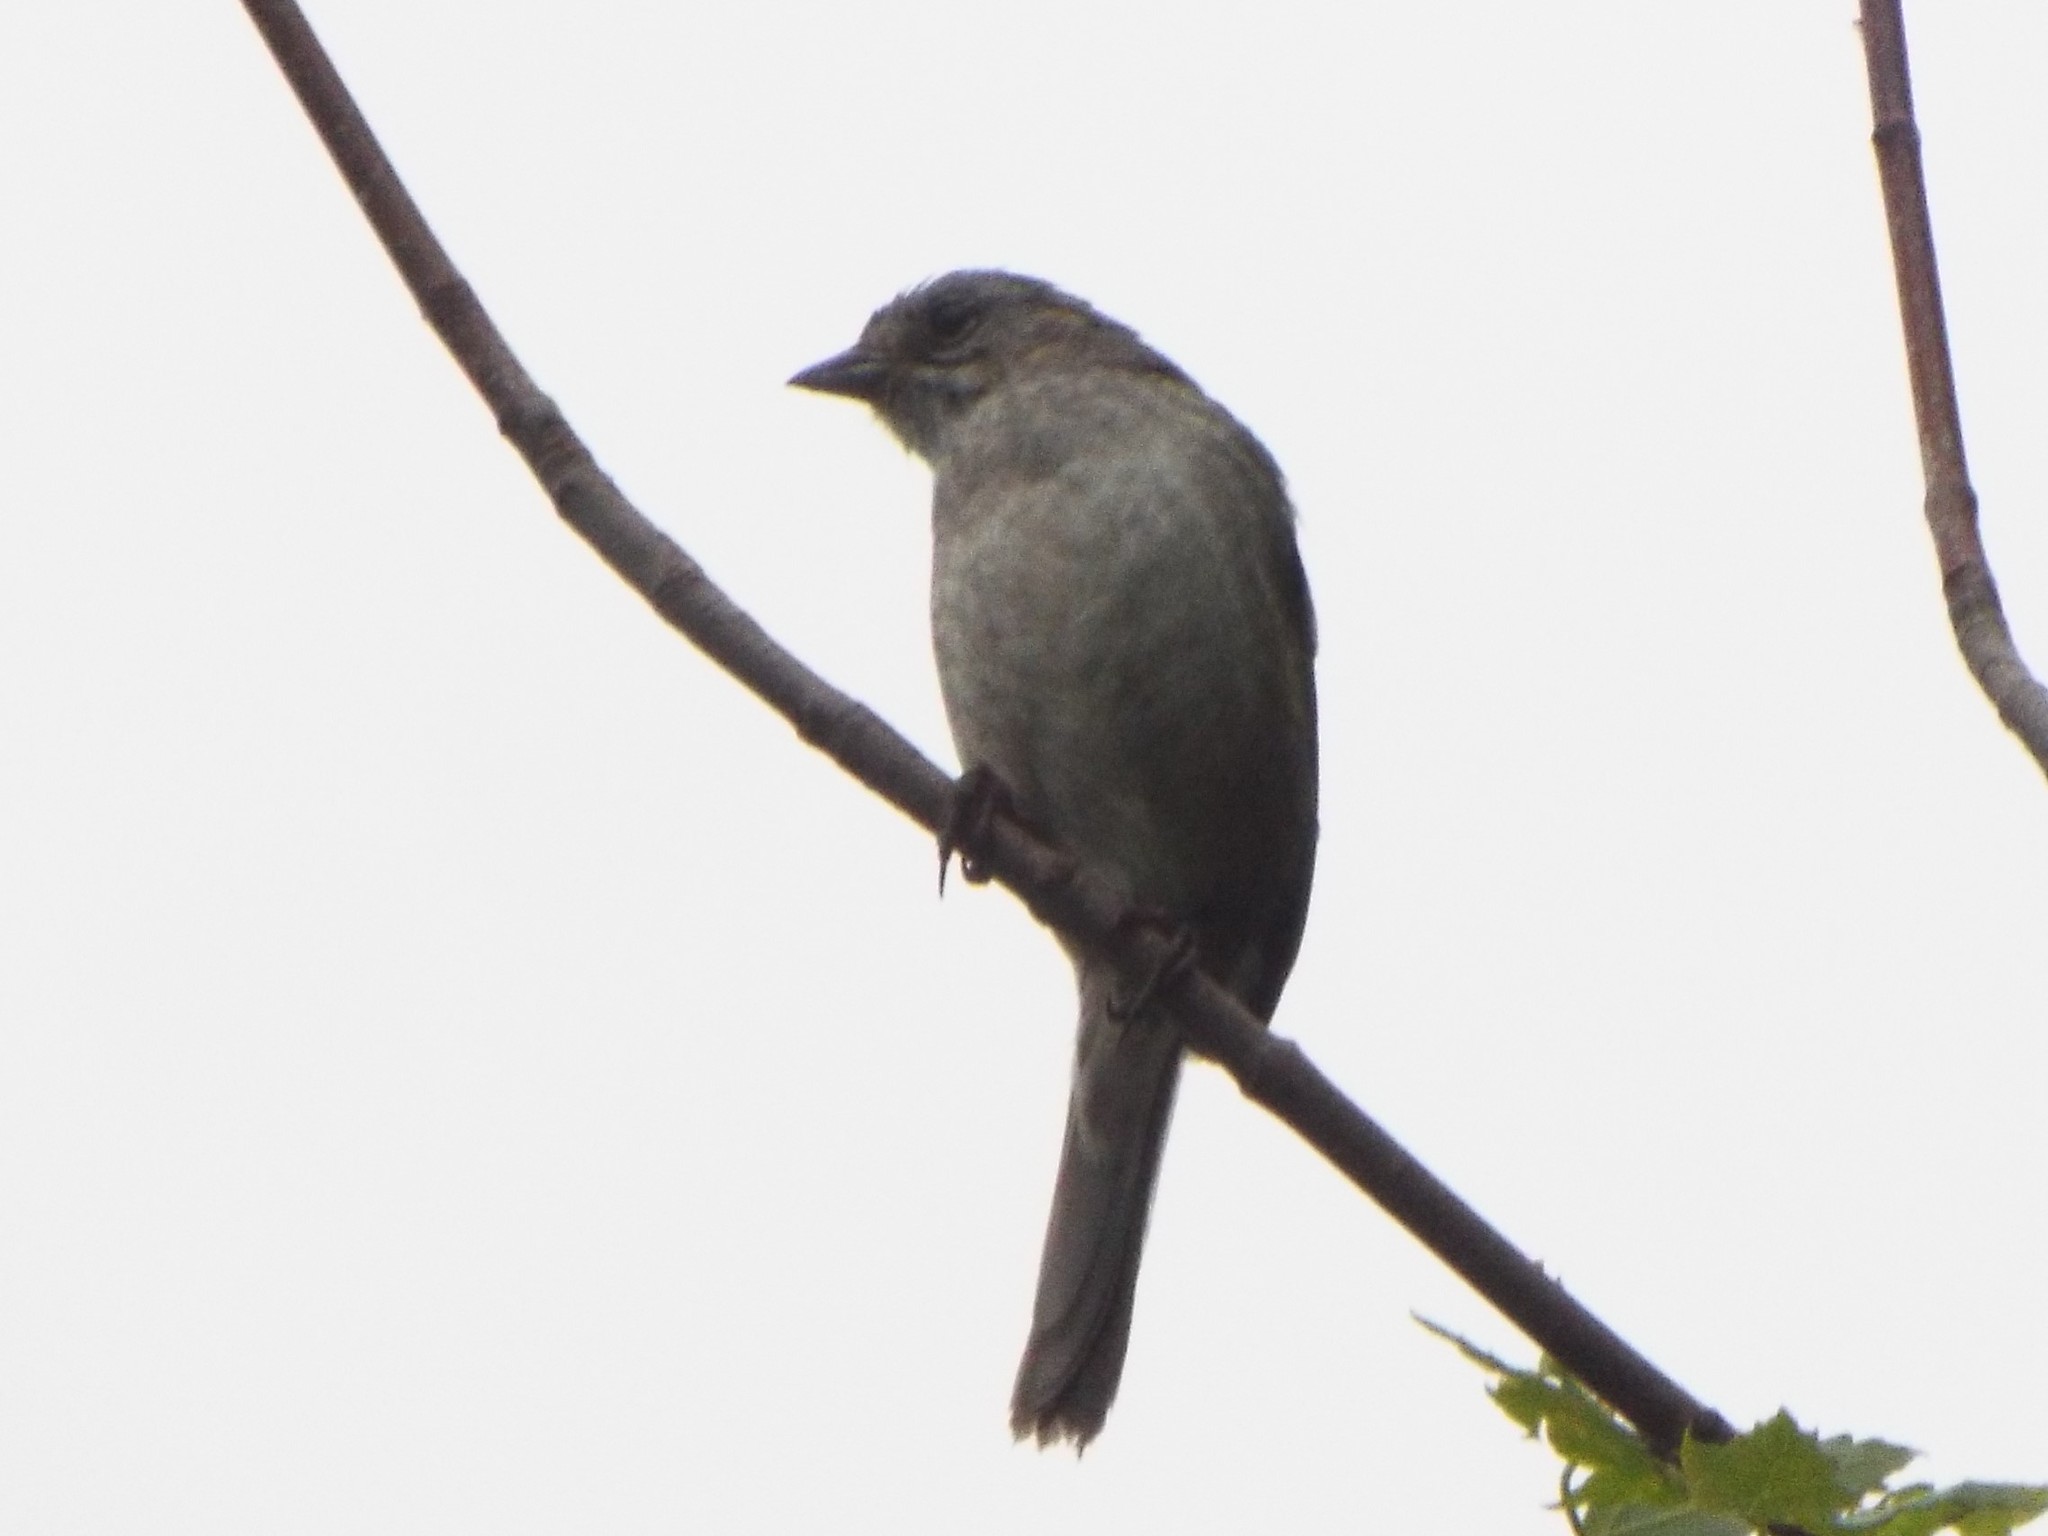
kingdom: Animalia
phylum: Chordata
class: Aves
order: Passeriformes
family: Passerellidae
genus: Melospiza
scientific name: Melospiza georgiana
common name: Swamp sparrow
